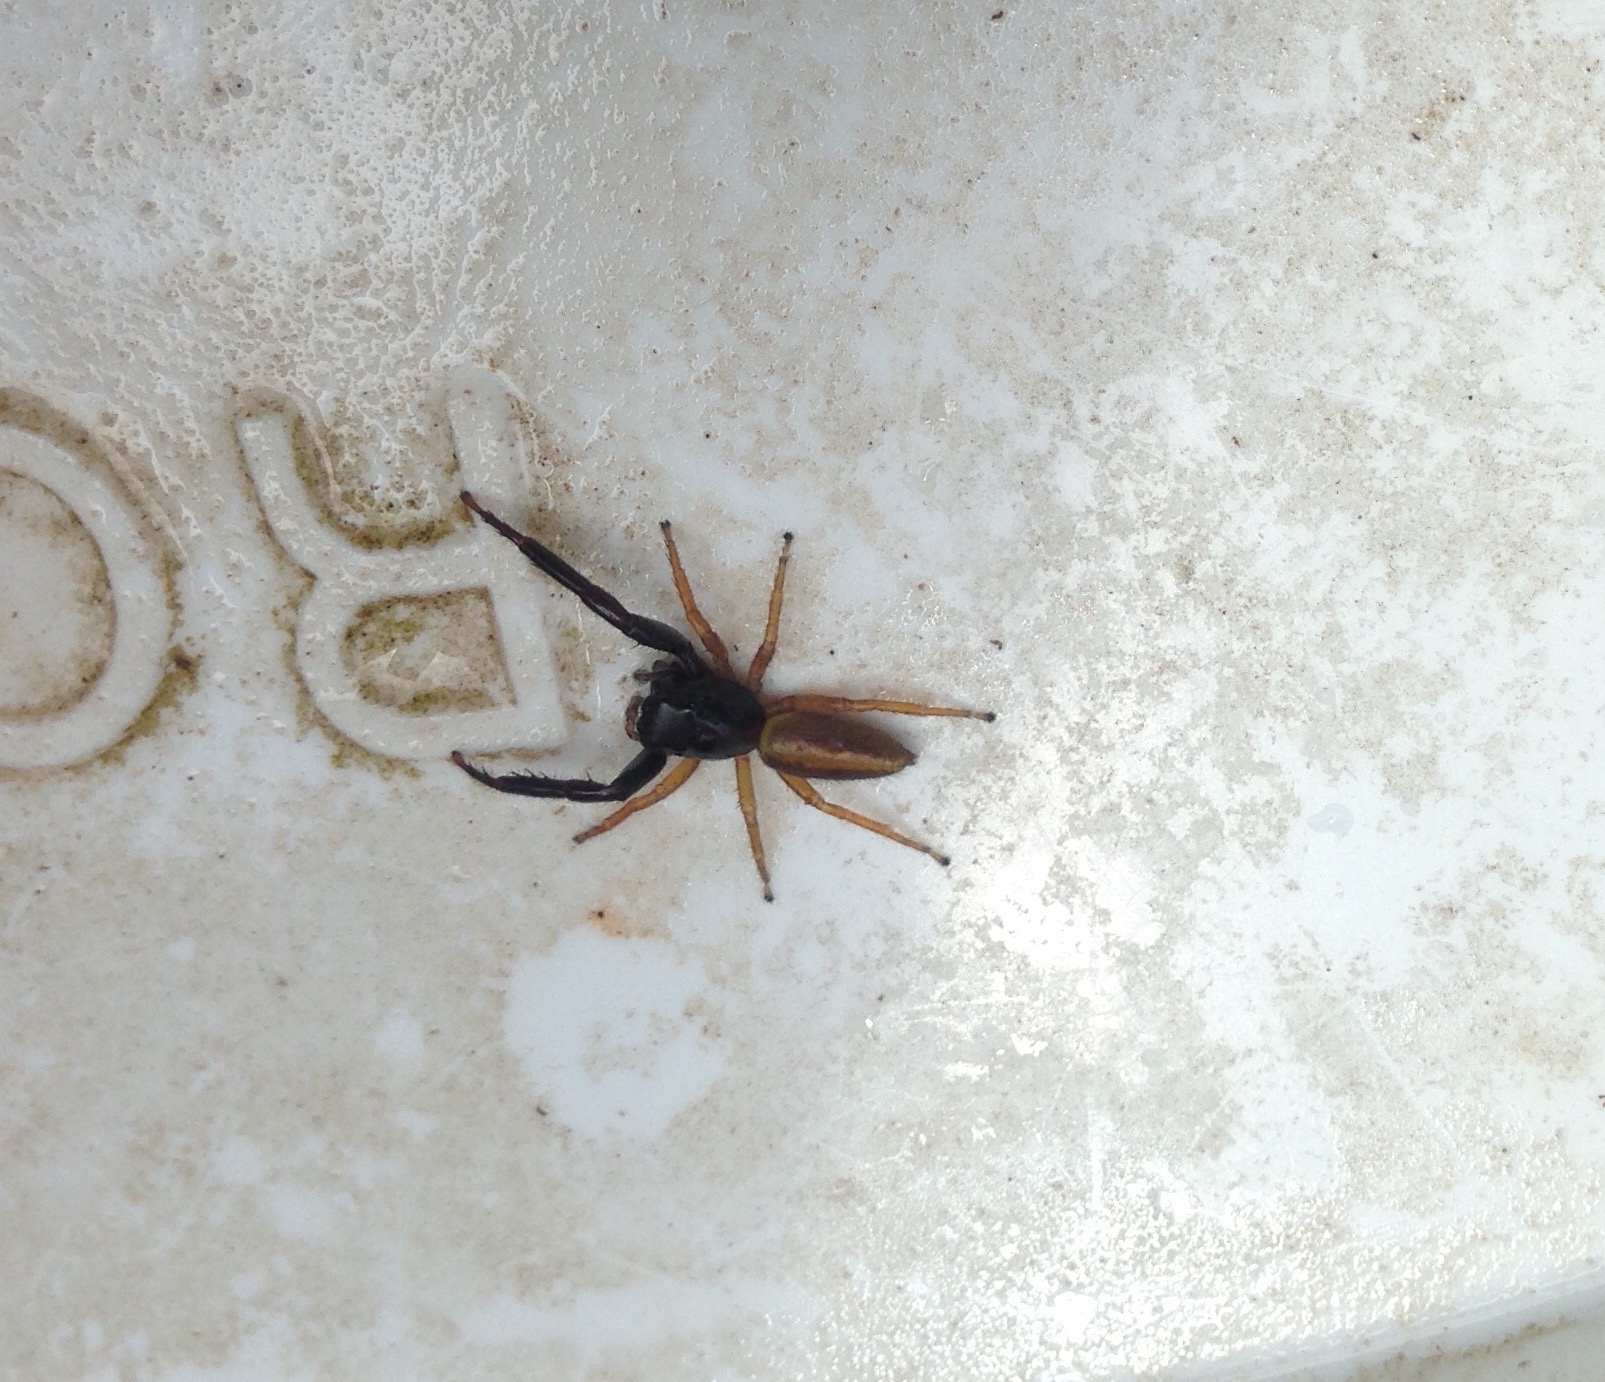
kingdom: Animalia
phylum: Arthropoda
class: Arachnida
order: Araneae
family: Salticidae
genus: Trite
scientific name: Trite planiceps
